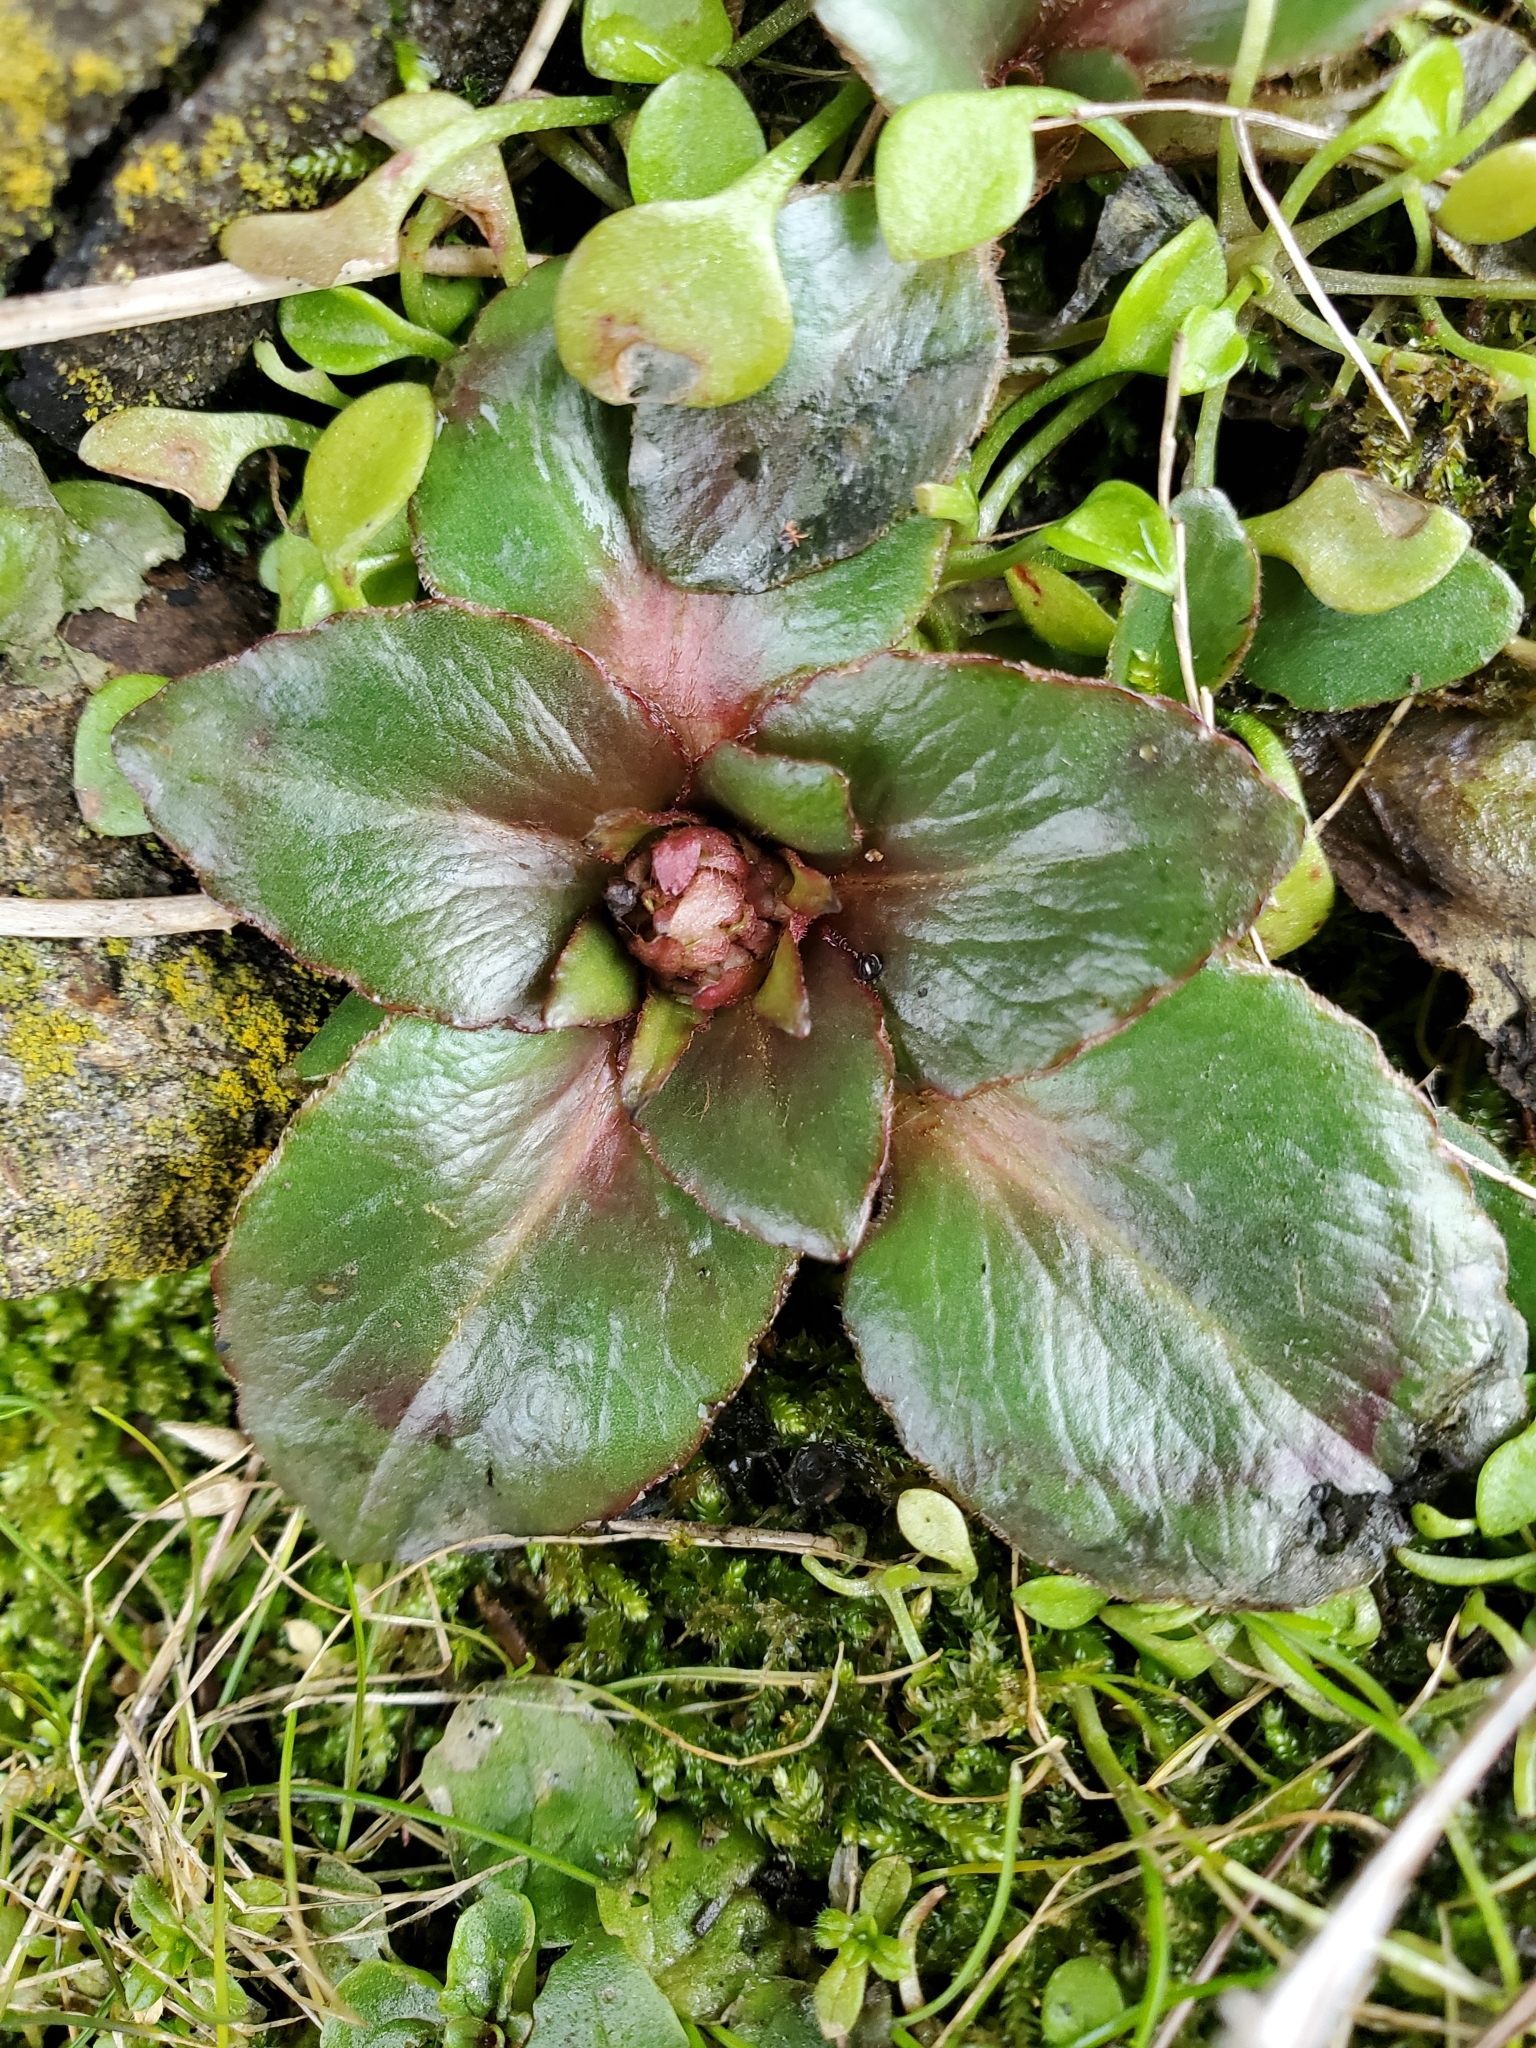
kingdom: Plantae
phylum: Tracheophyta
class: Magnoliopsida
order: Saxifragales
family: Saxifragaceae
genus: Micranthes
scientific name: Micranthes integrifolia
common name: Wholeleaf saxifrage
